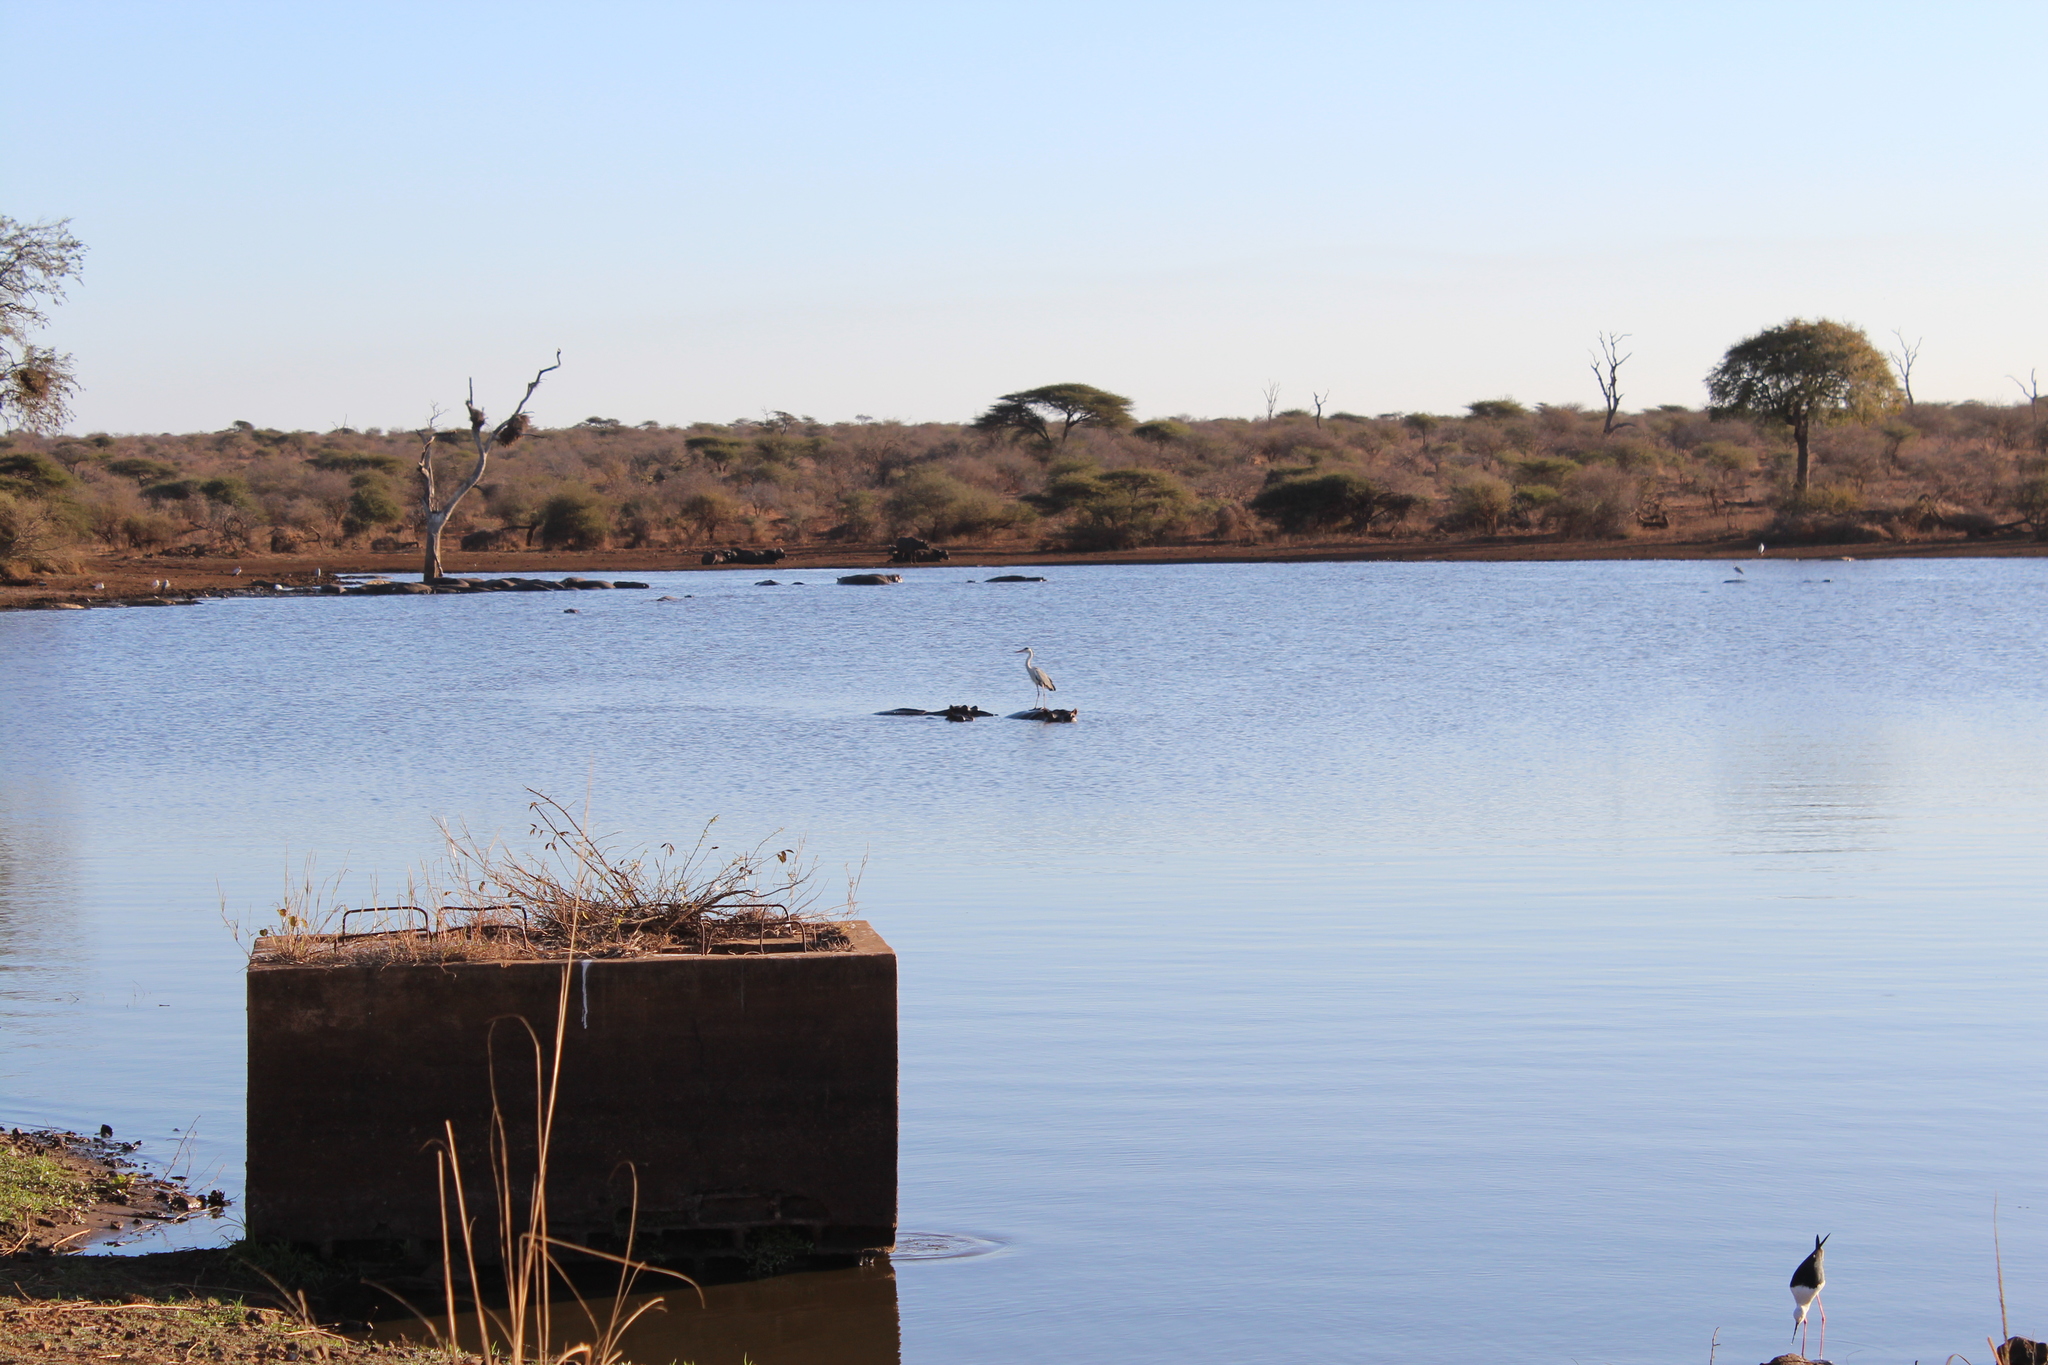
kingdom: Animalia
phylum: Chordata
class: Aves
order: Pelecaniformes
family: Ardeidae
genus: Ardea
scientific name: Ardea cinerea
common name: Grey heron
